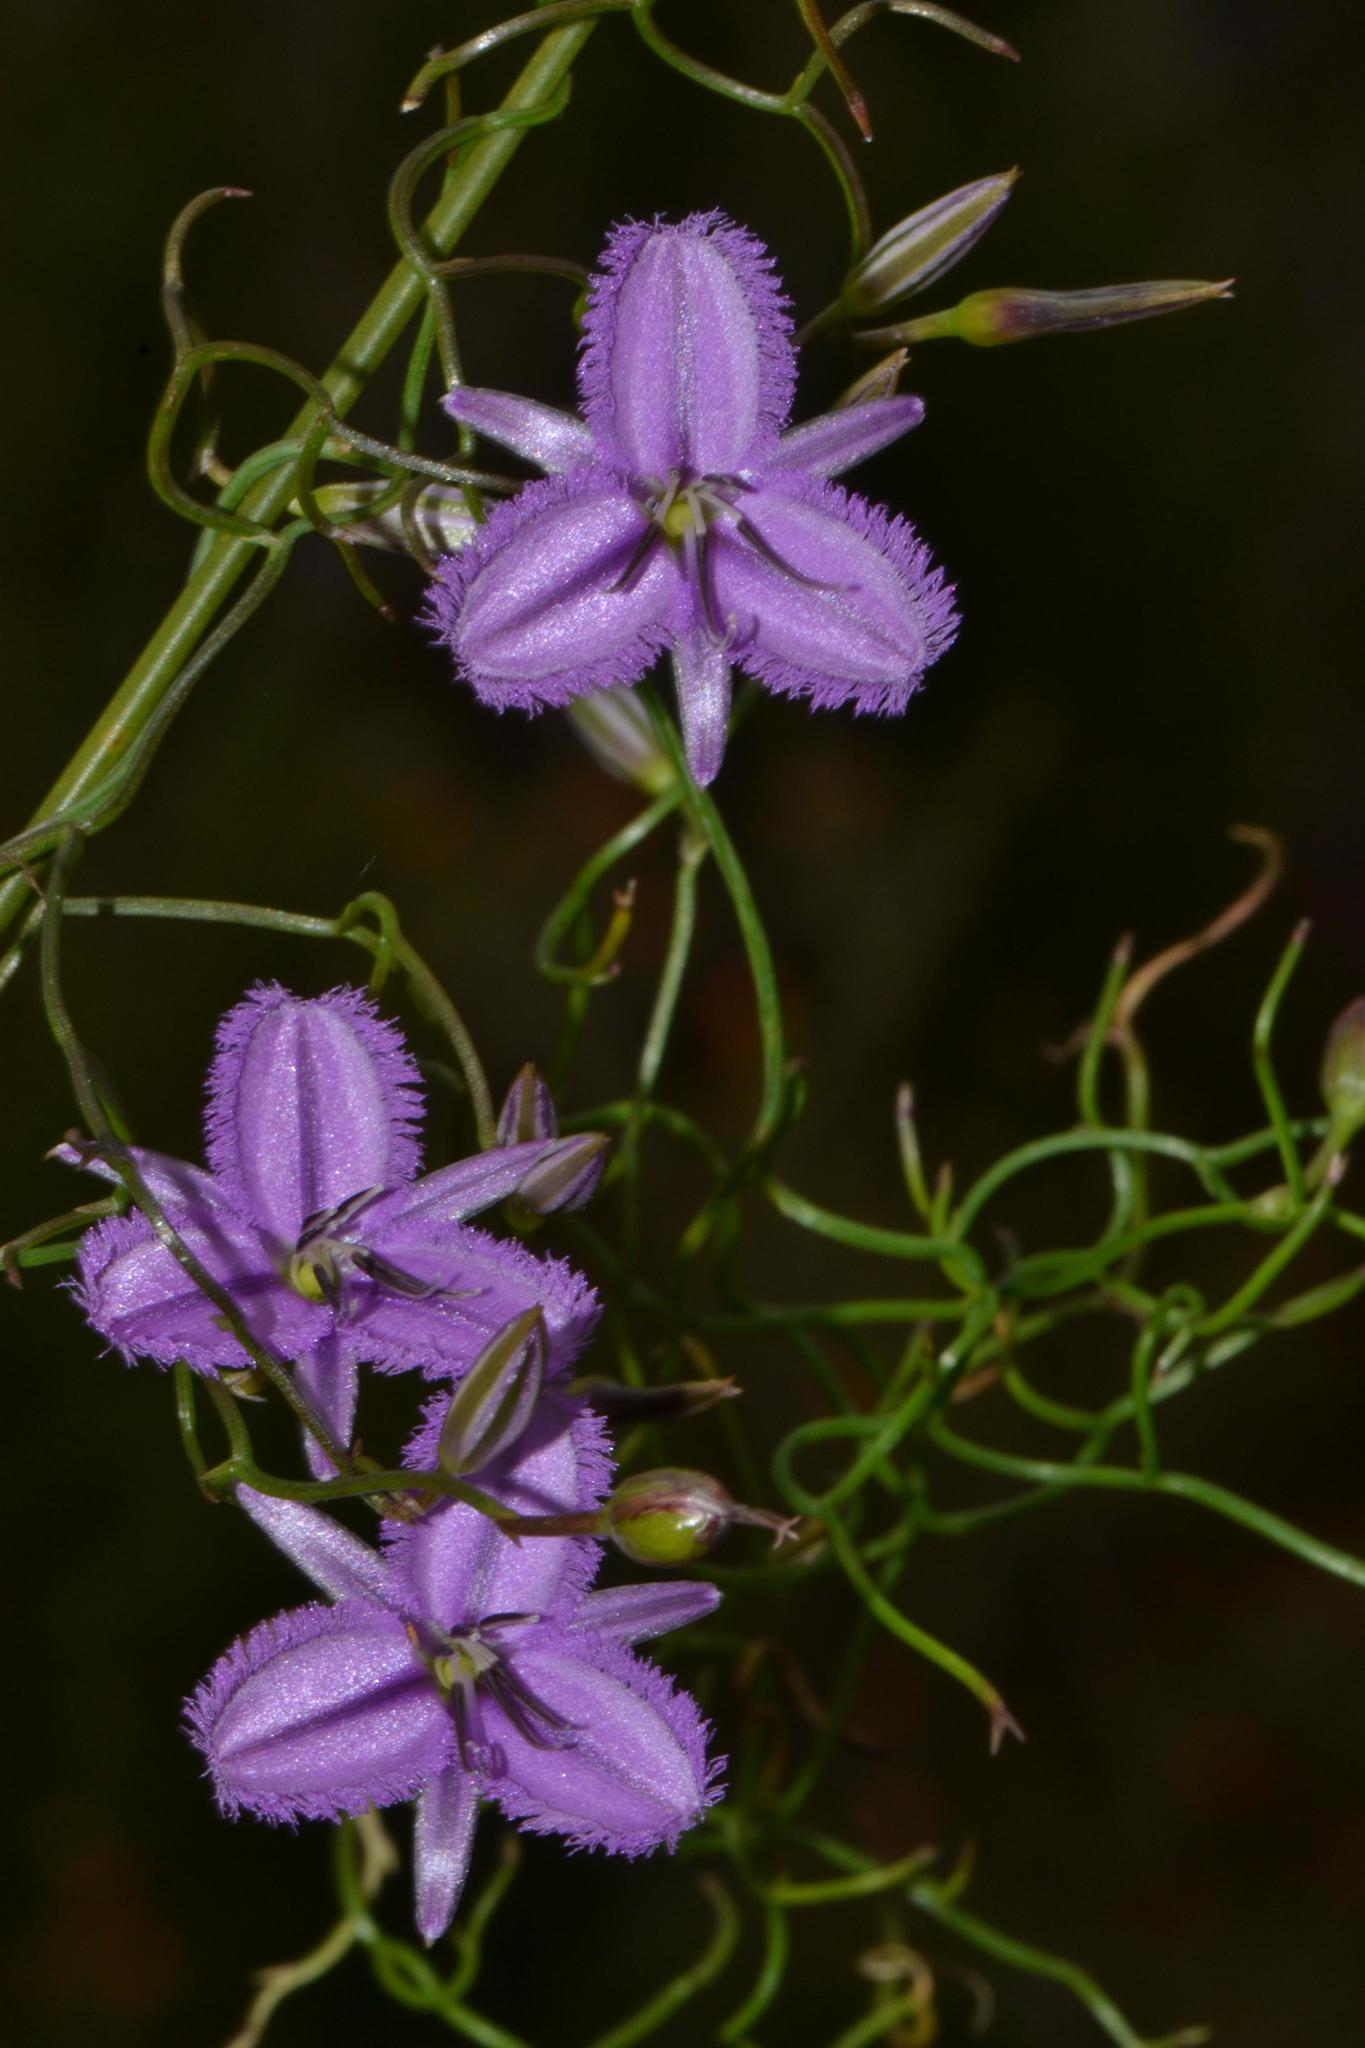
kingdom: Plantae
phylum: Tracheophyta
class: Liliopsida
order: Asparagales
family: Asparagaceae
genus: Thysanotus
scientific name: Thysanotus manglesianus
